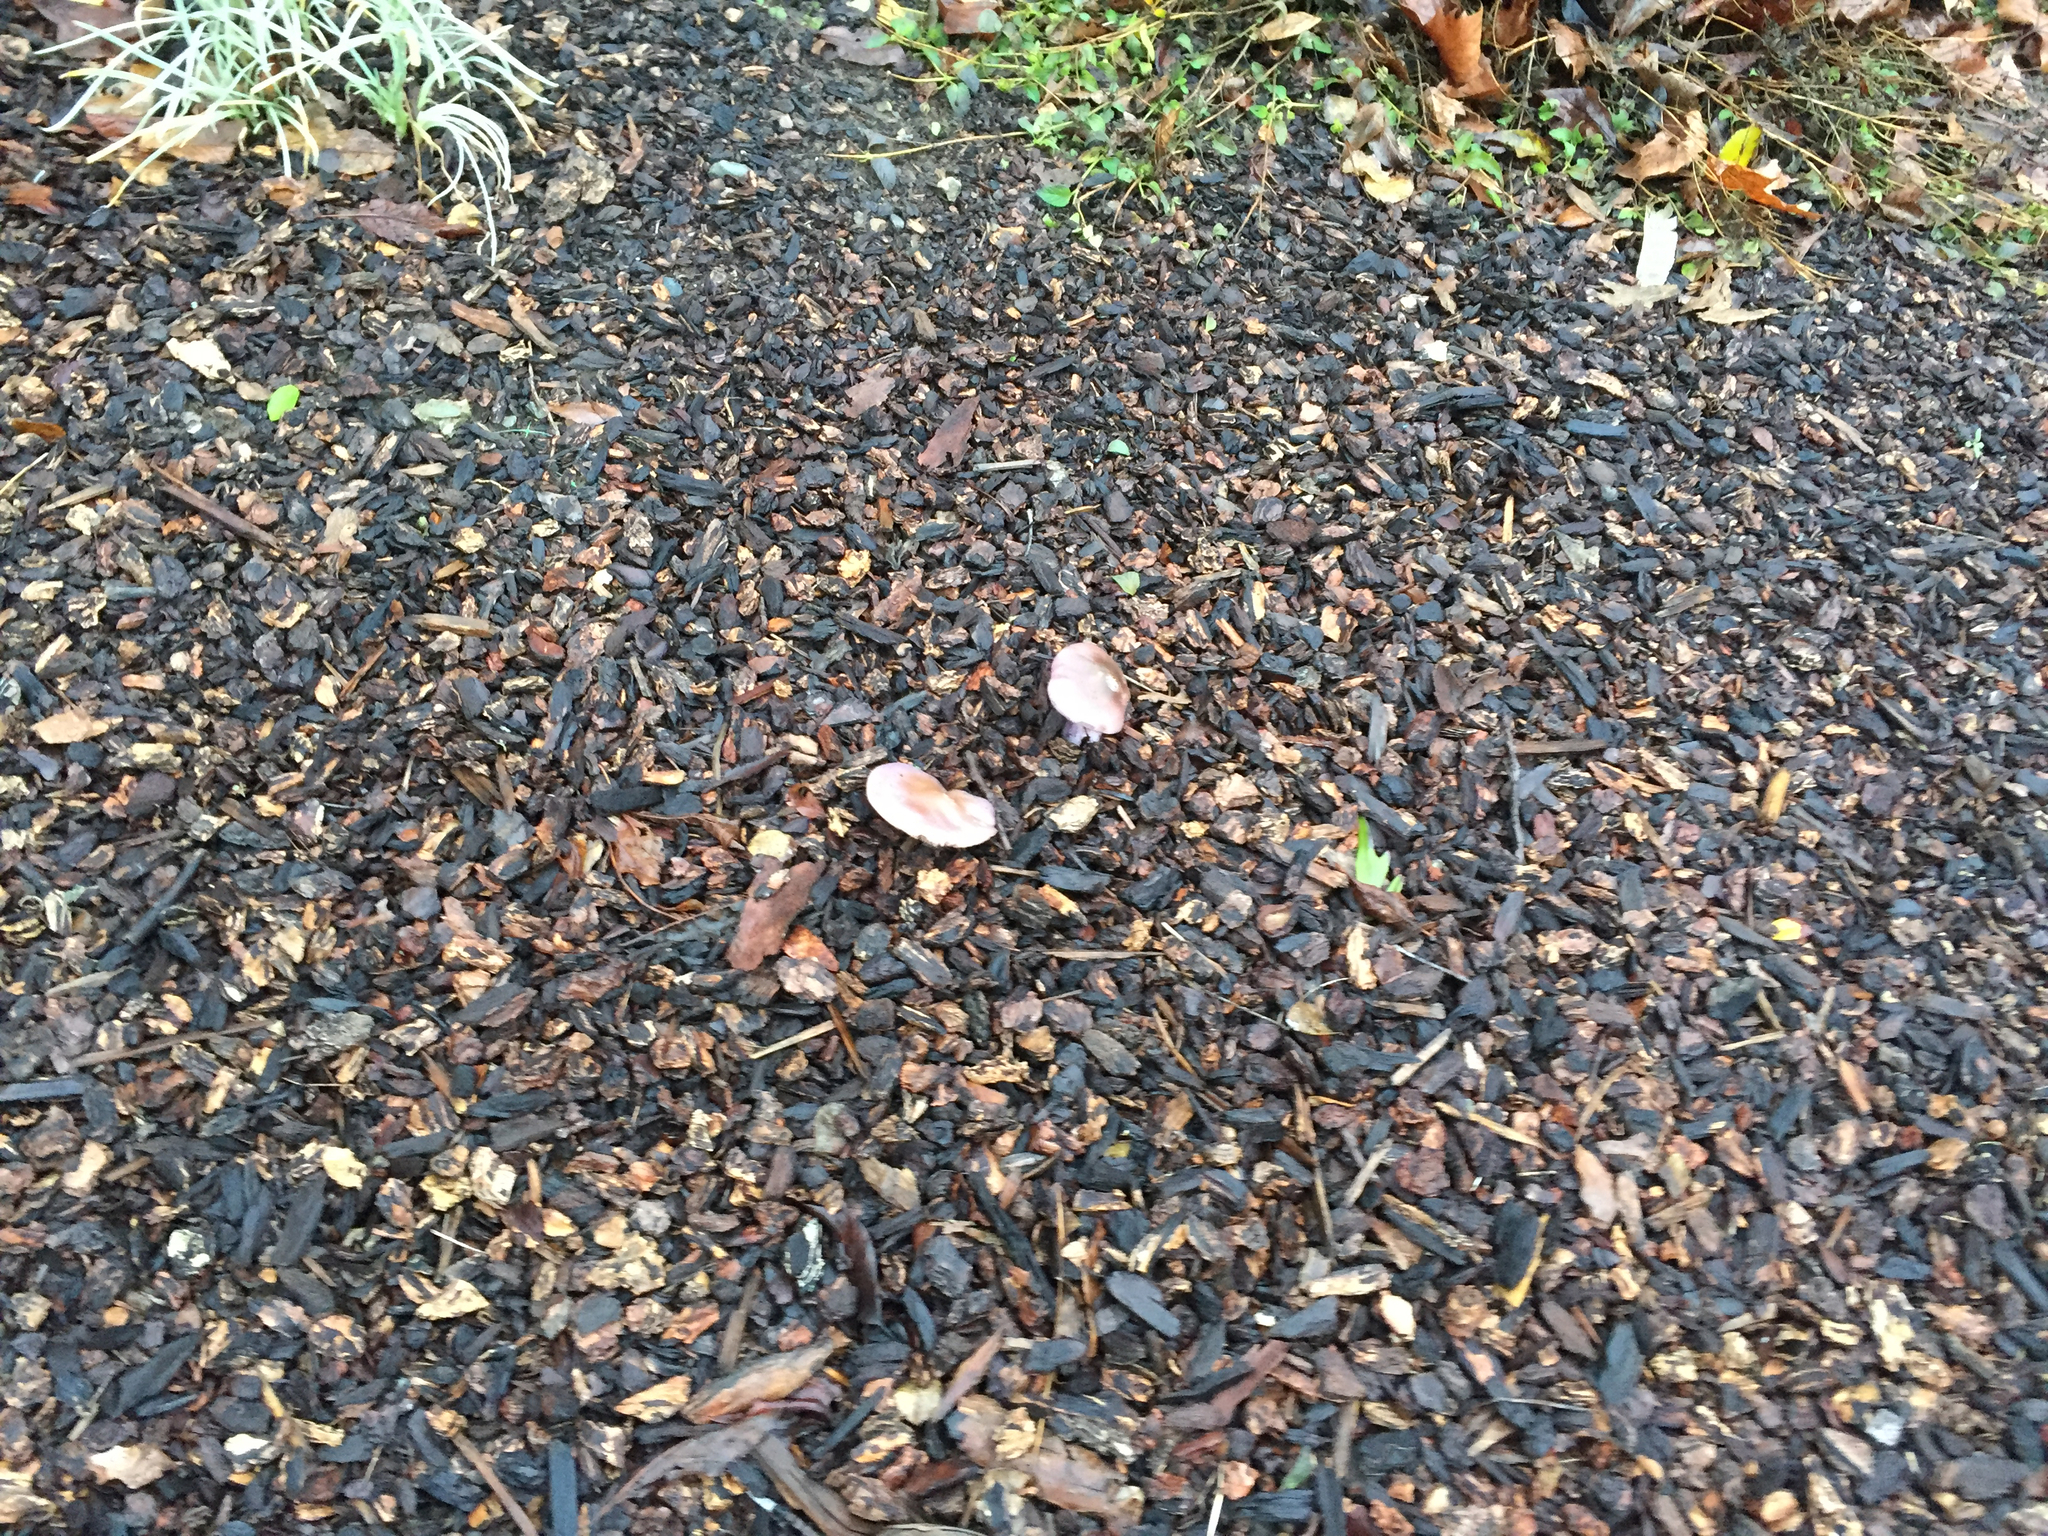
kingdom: Fungi
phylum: Basidiomycota
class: Agaricomycetes
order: Agaricales
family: Tricholomataceae
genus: Collybia
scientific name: Collybia
